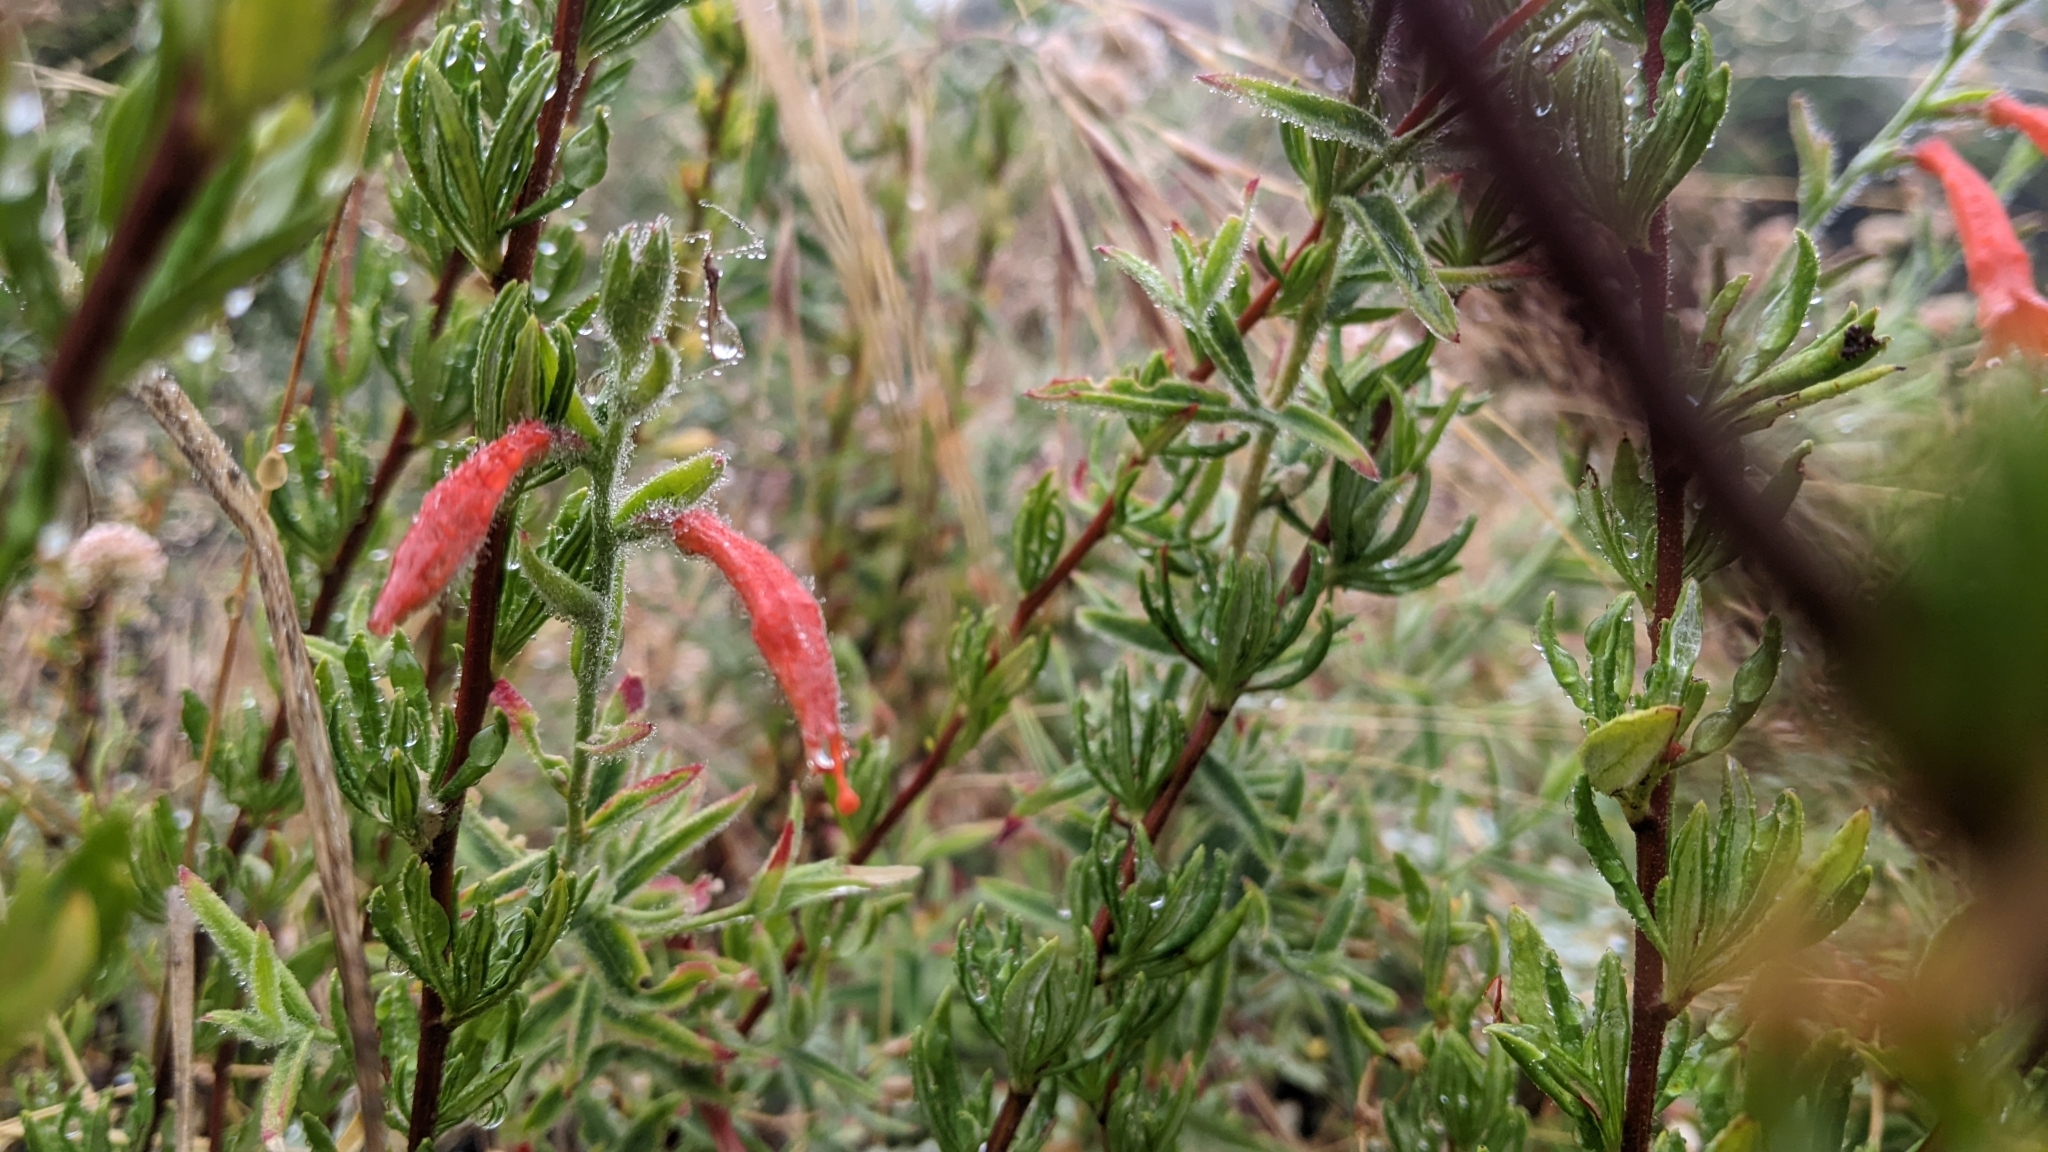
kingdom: Plantae
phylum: Tracheophyta
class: Magnoliopsida
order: Myrtales
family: Onagraceae
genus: Epilobium
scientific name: Epilobium canum
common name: California-fuchsia
